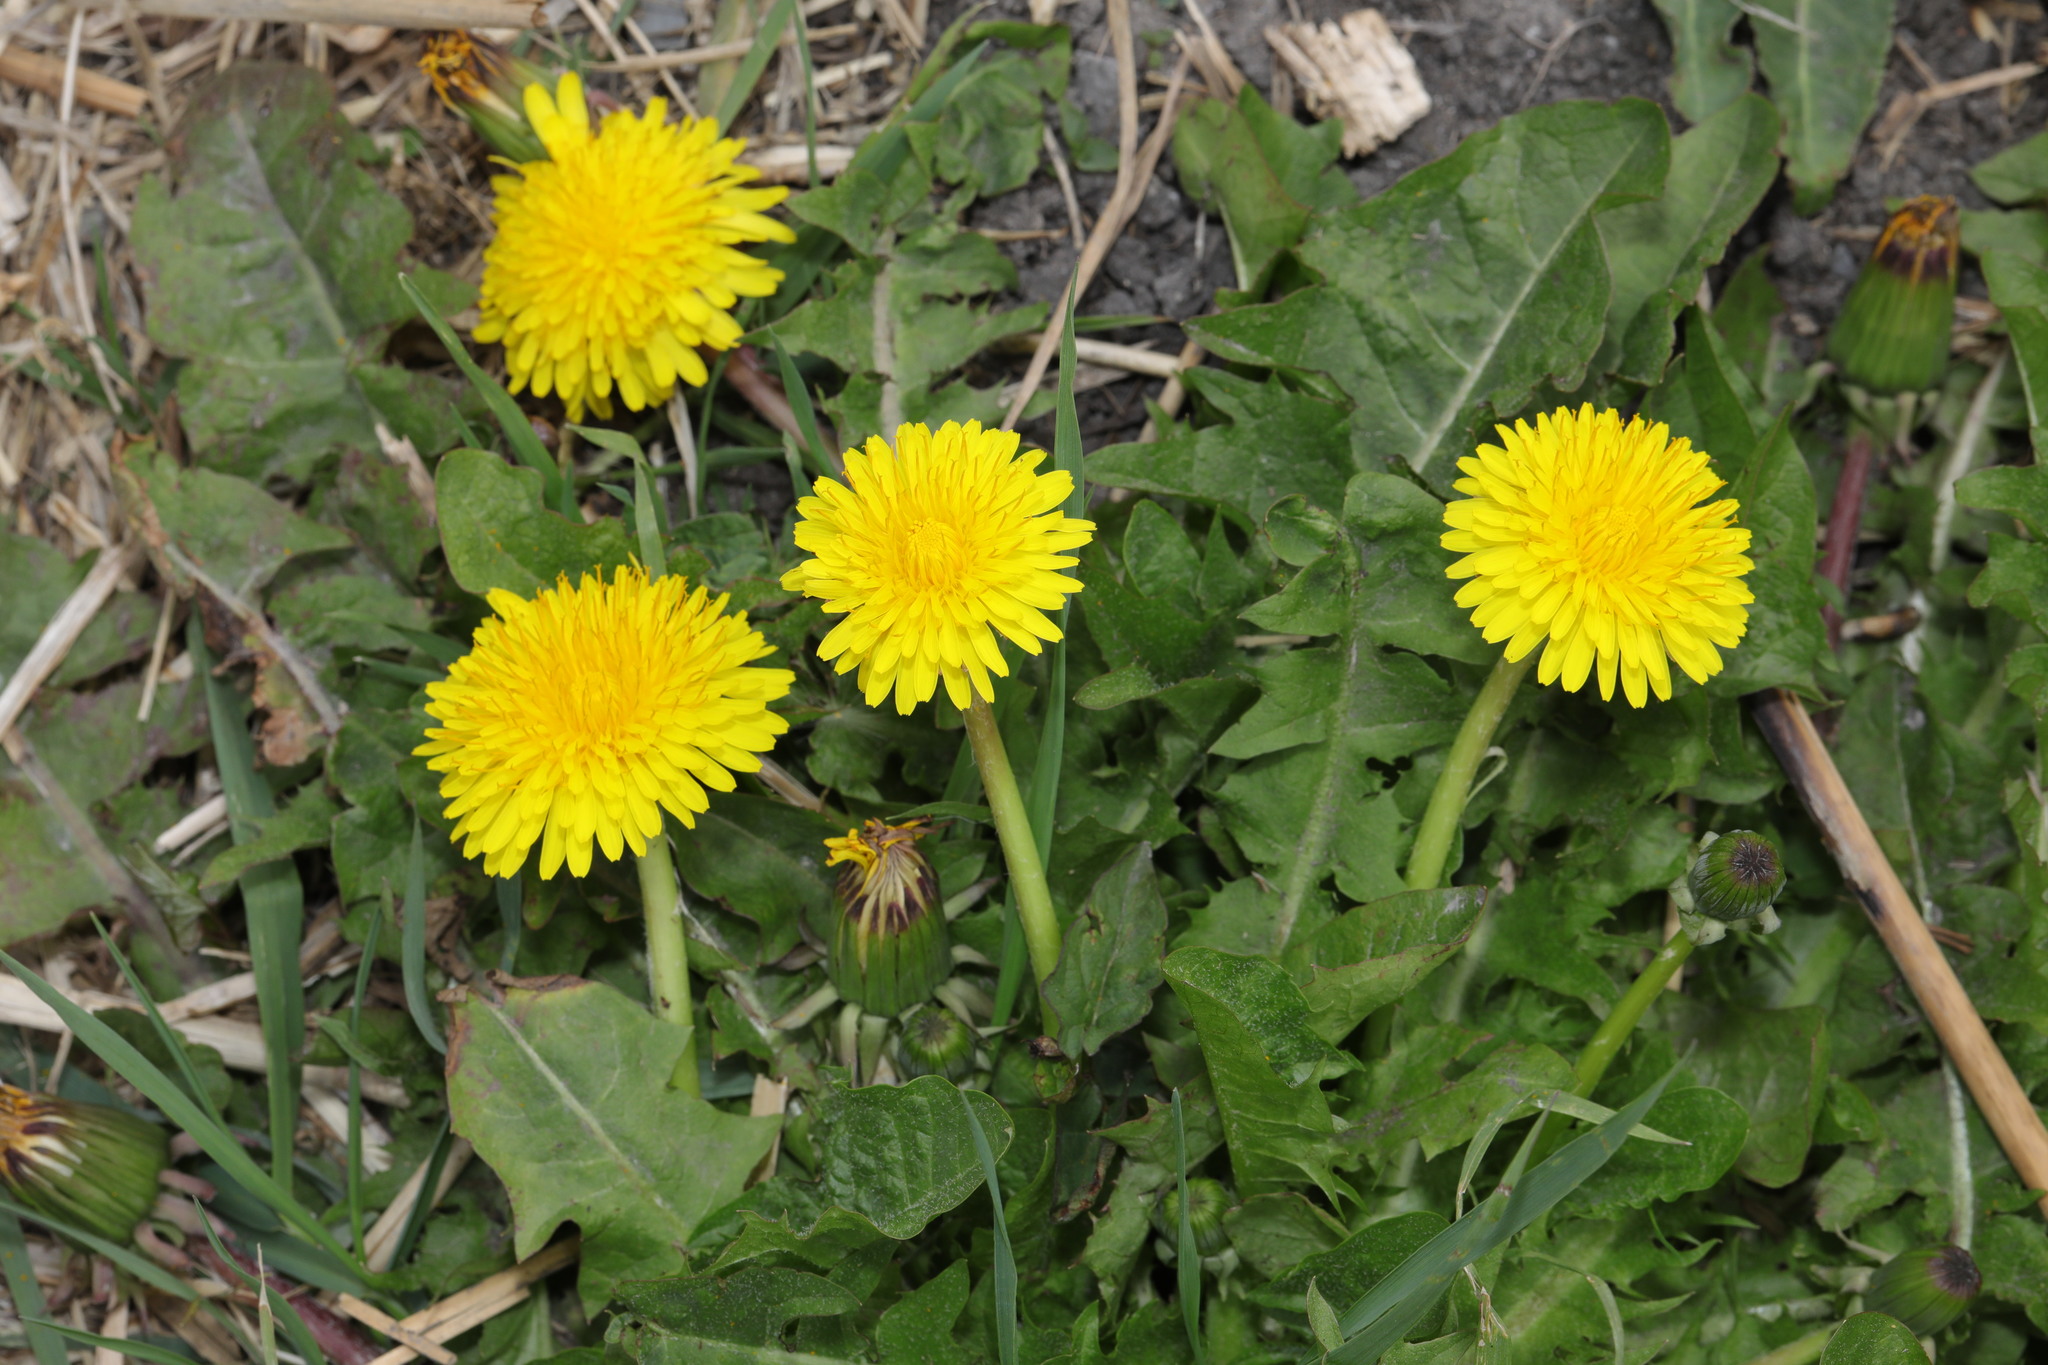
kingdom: Plantae
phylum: Tracheophyta
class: Magnoliopsida
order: Asterales
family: Asteraceae
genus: Taraxacum
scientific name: Taraxacum officinale
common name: Common dandelion
